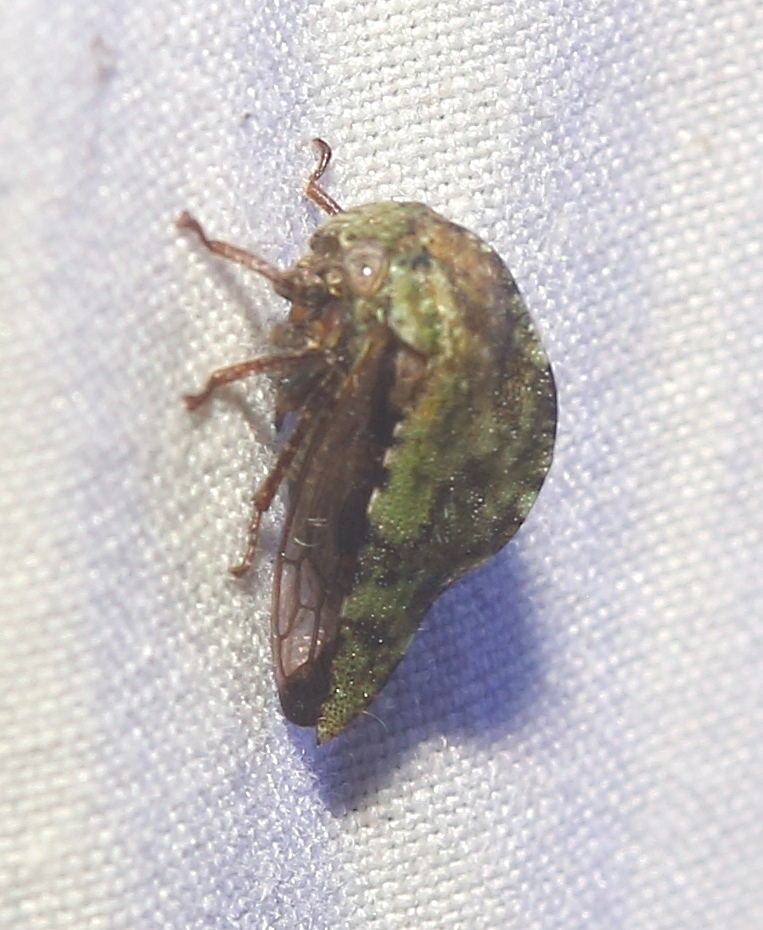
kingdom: Animalia
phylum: Arthropoda
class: Insecta
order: Hemiptera
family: Membracidae
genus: Telamona
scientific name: Telamona westcotti
